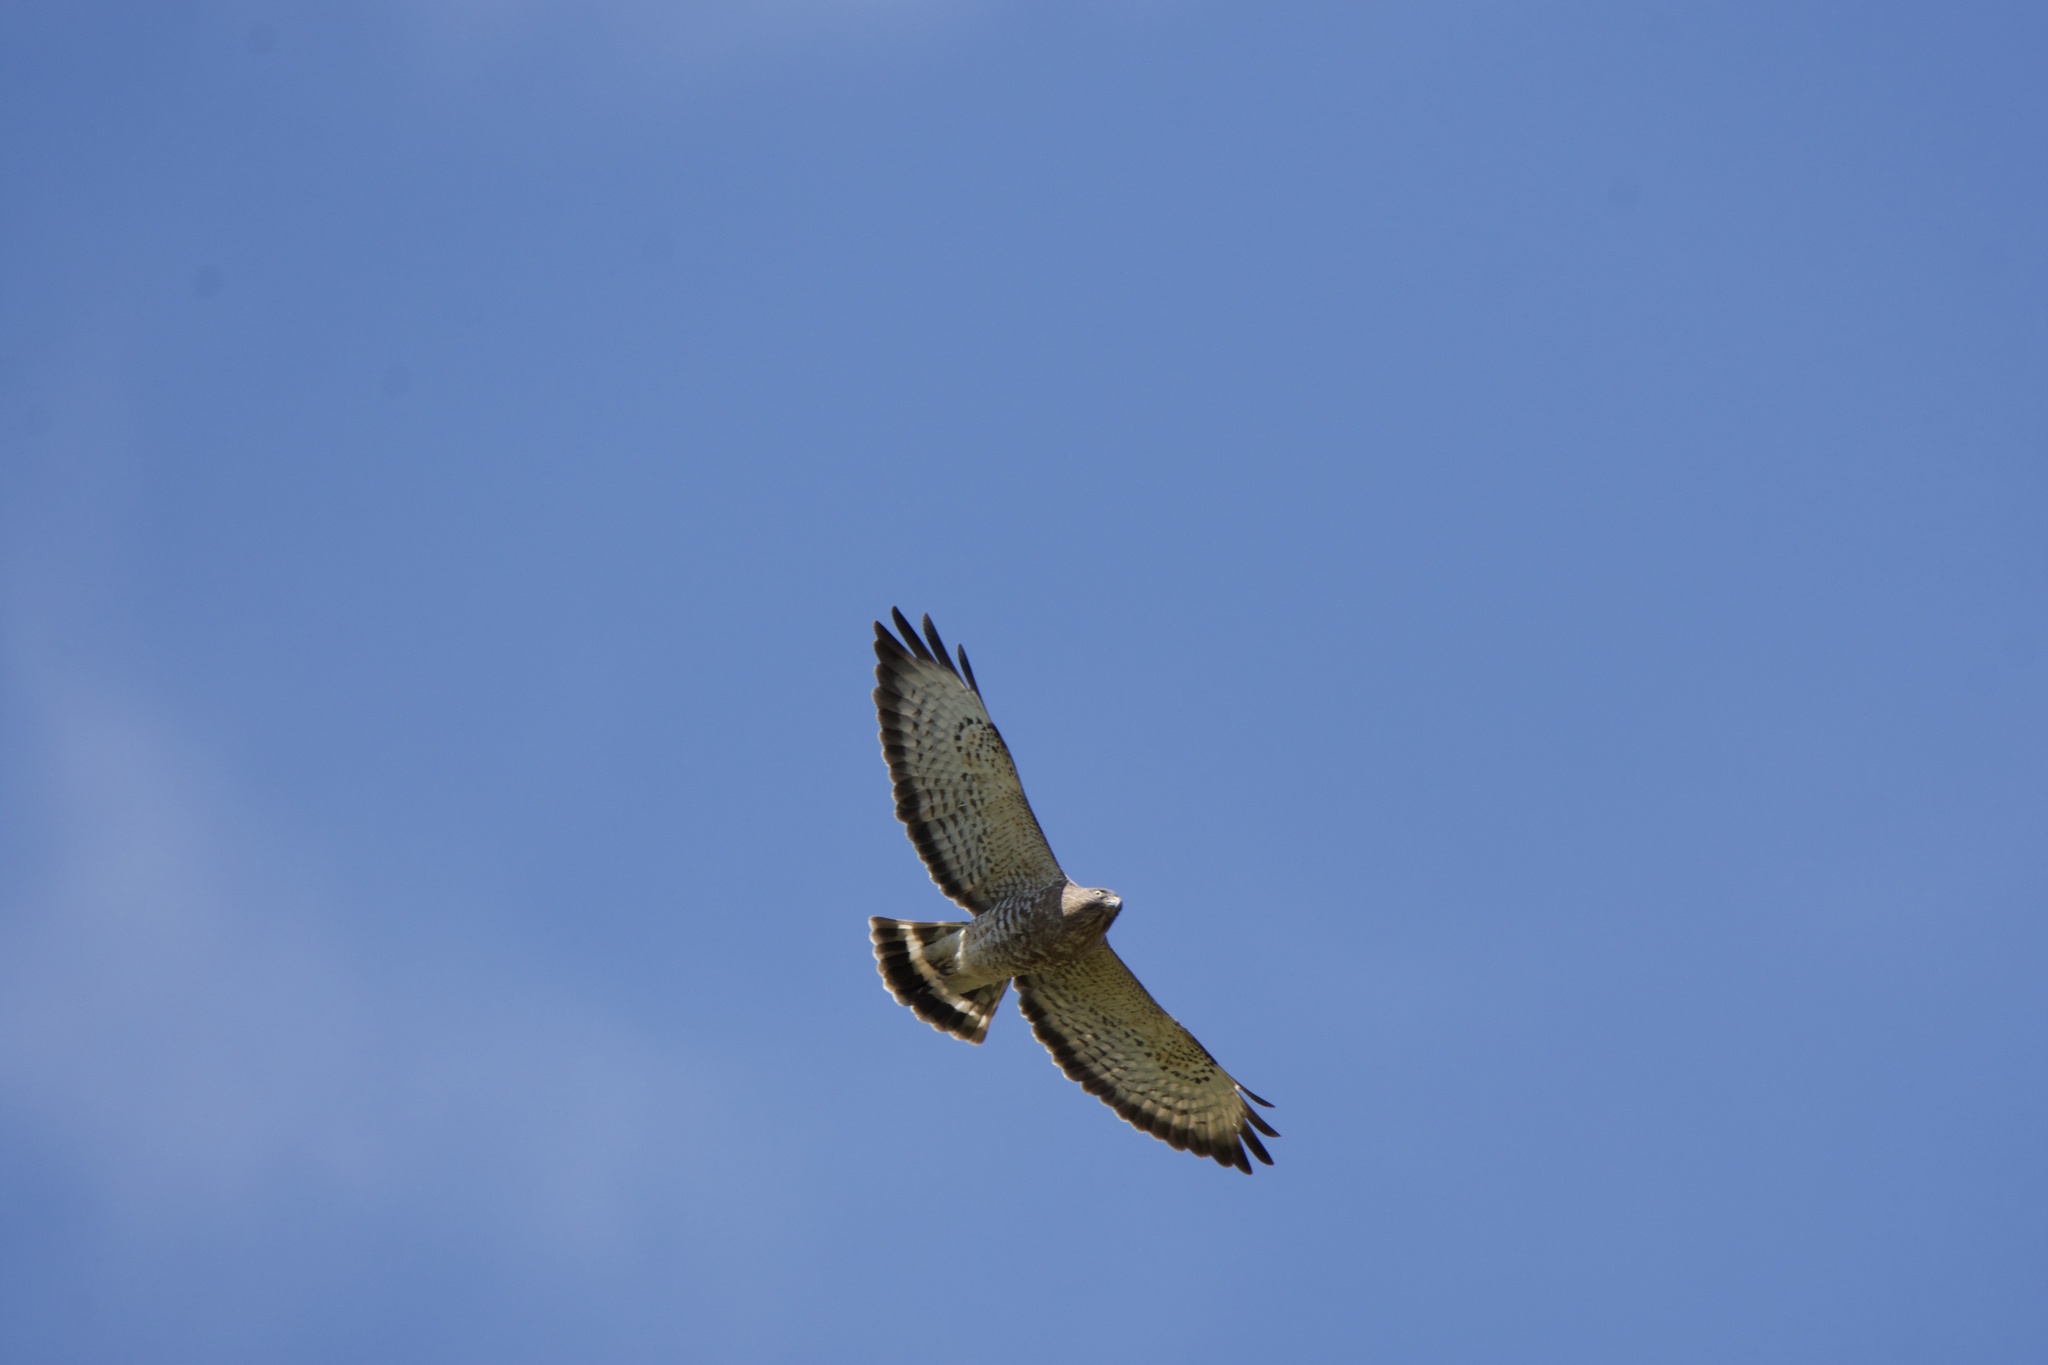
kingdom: Animalia
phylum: Chordata
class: Aves
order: Accipitriformes
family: Accipitridae
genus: Buteo
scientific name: Buteo platypterus
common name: Broad-winged hawk
